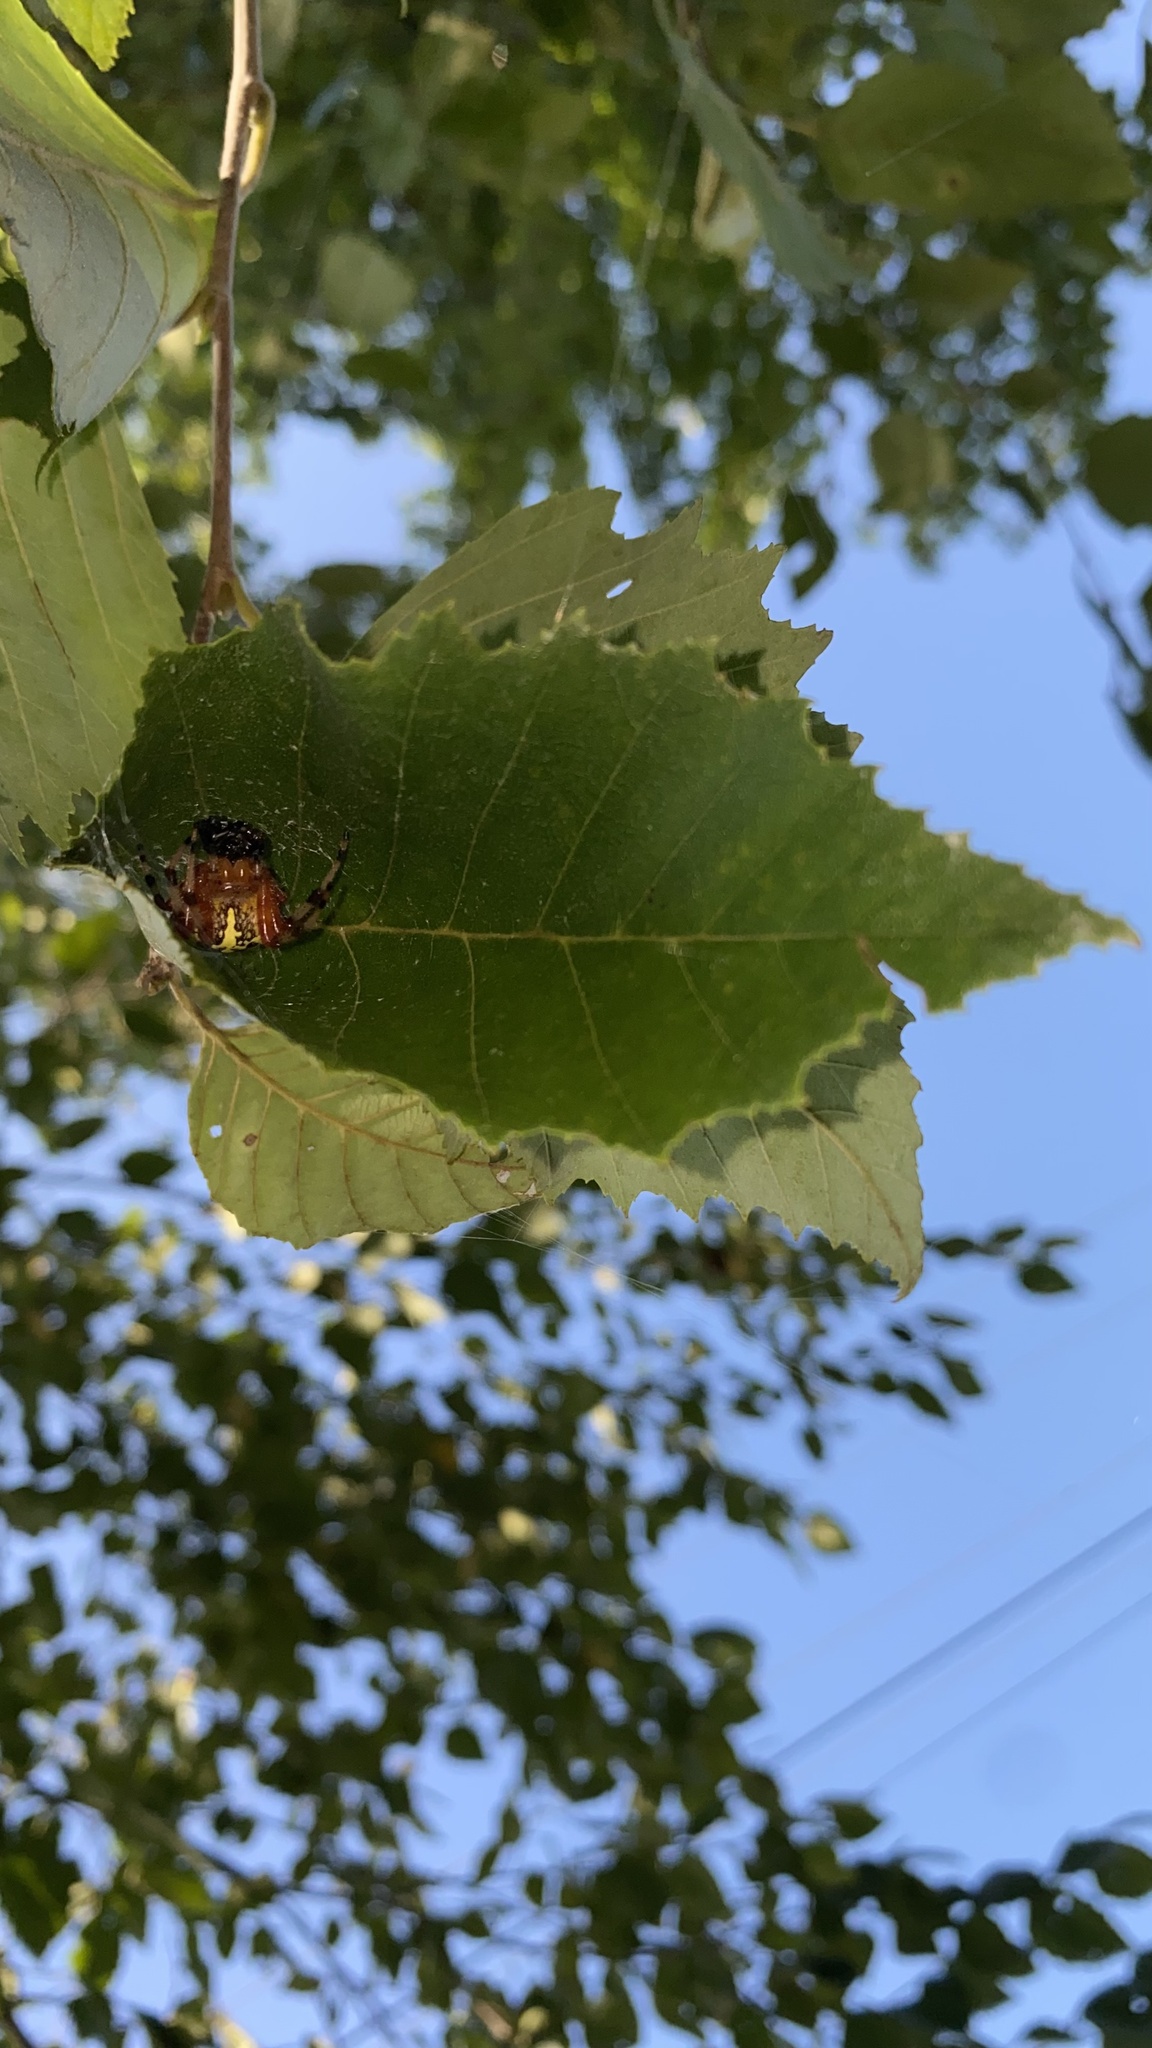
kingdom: Animalia
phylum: Arthropoda
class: Arachnida
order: Araneae
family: Araneidae
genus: Araneus
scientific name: Araneus marmoreus
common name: Marbled orbweaver
